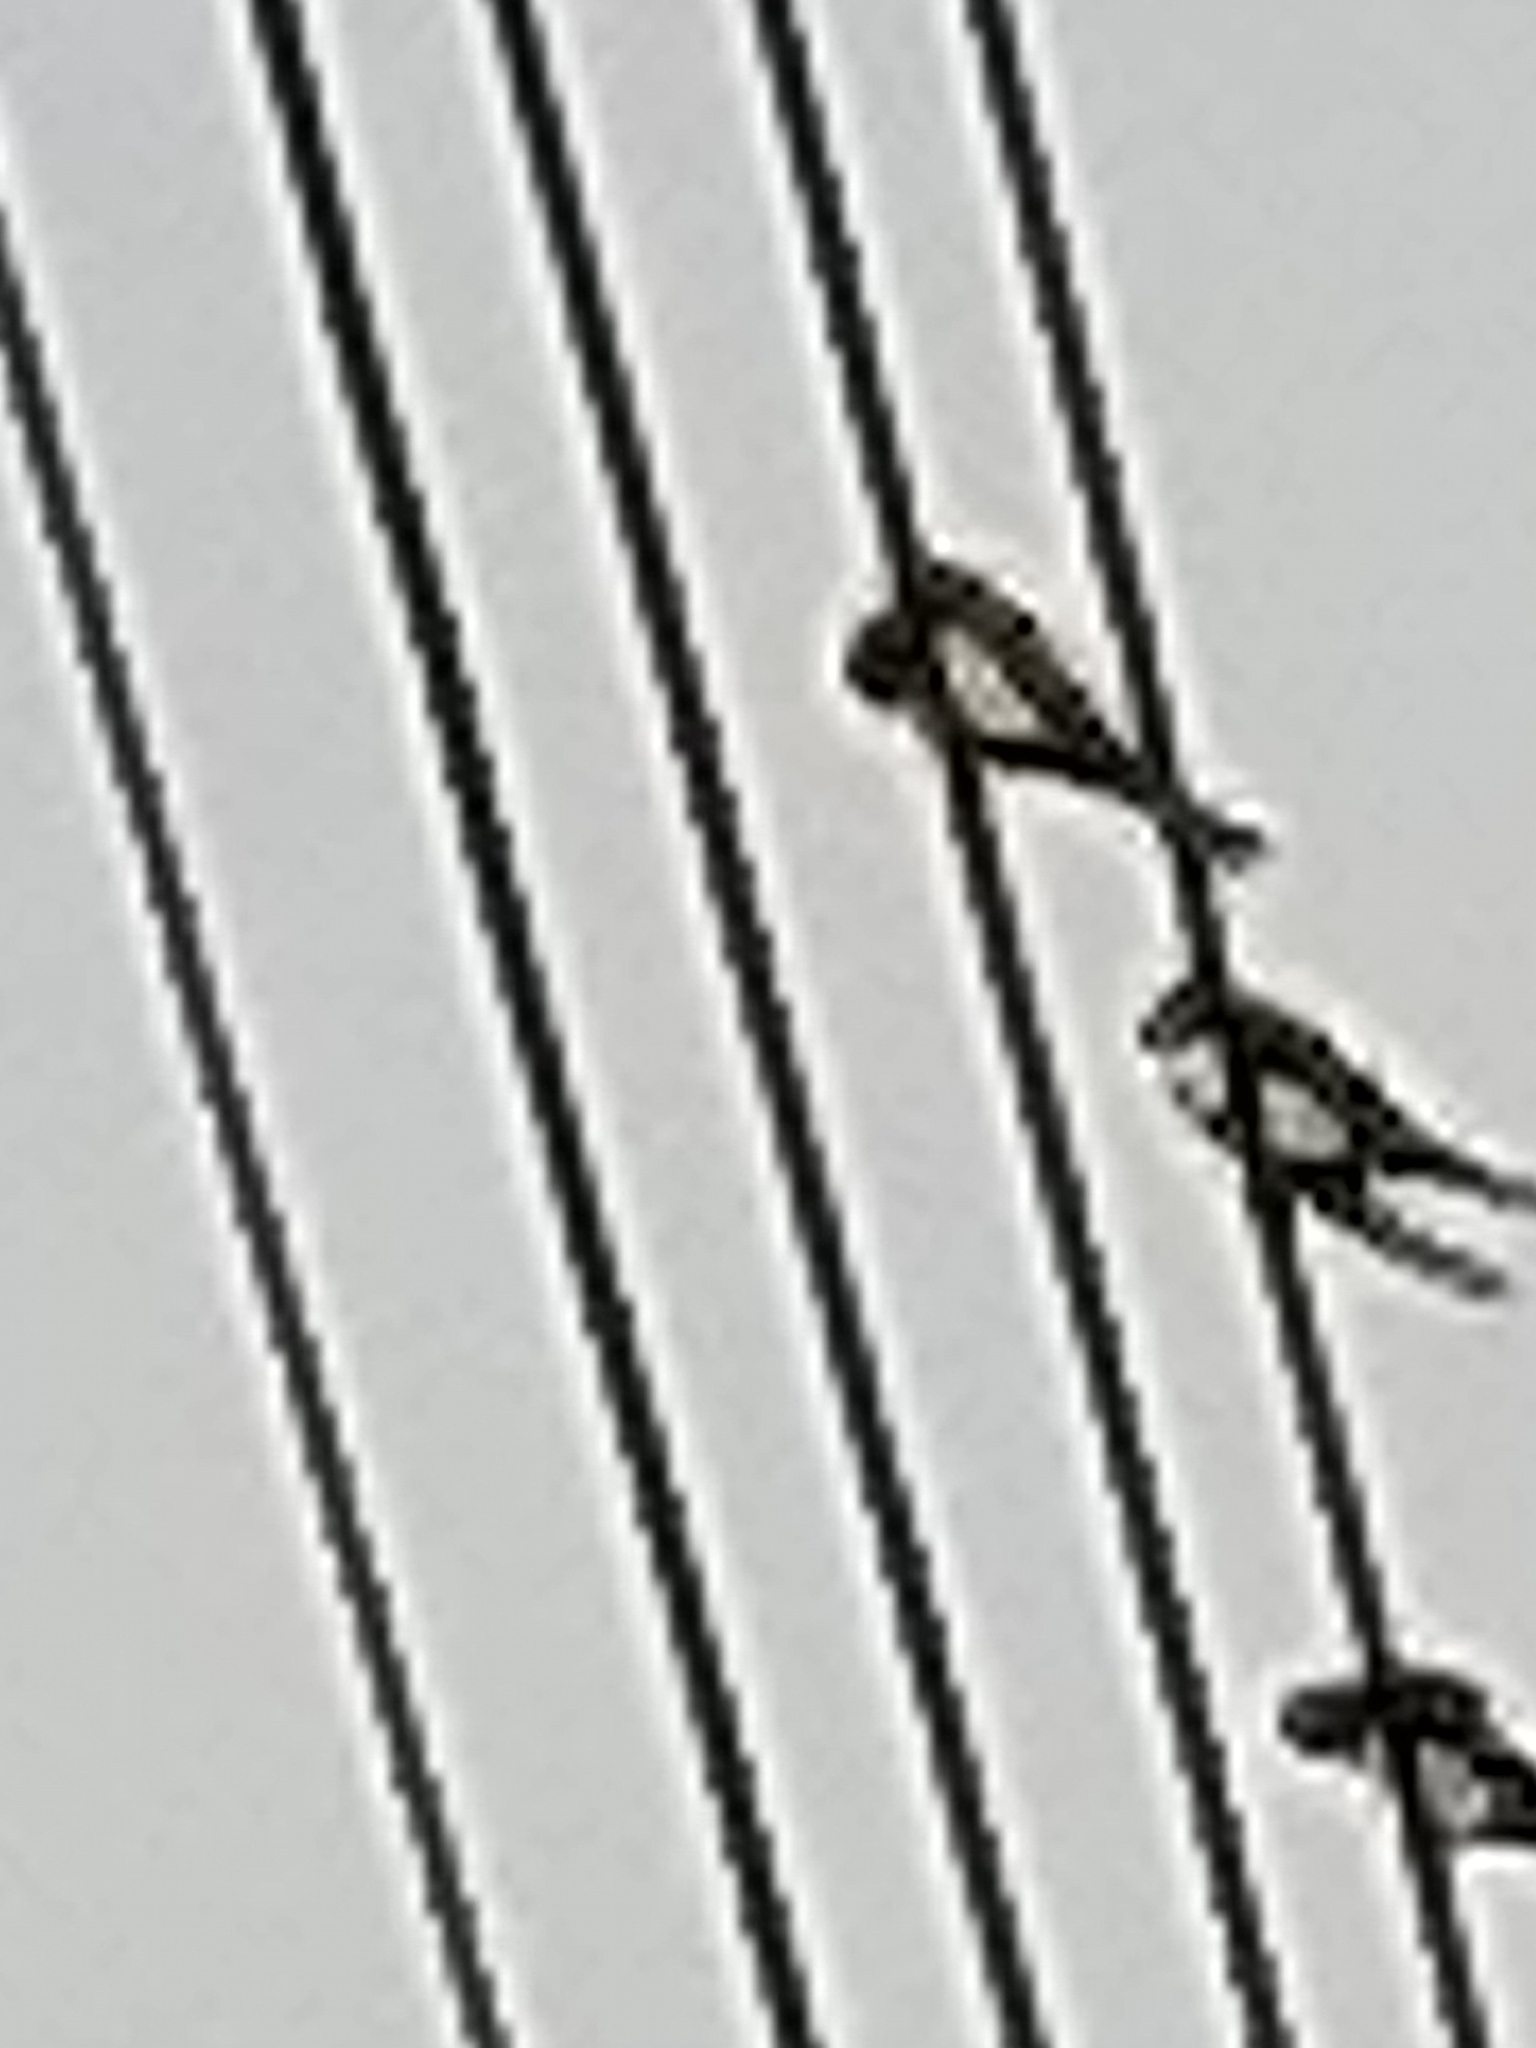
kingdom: Animalia
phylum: Chordata
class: Aves
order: Passeriformes
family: Hirundinidae
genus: Hirundo
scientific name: Hirundo rustica
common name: Barn swallow
